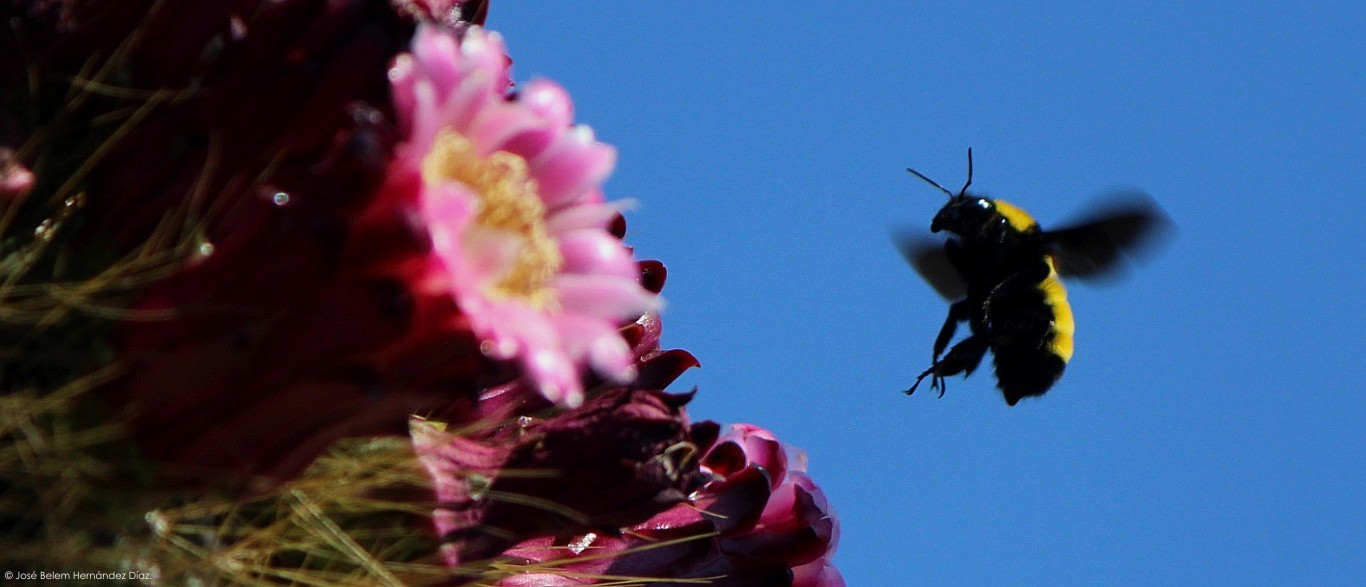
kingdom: Animalia
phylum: Arthropoda
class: Insecta
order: Hymenoptera
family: Apidae
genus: Bombus
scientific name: Bombus sonorus
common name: Sonoran bumble bee
